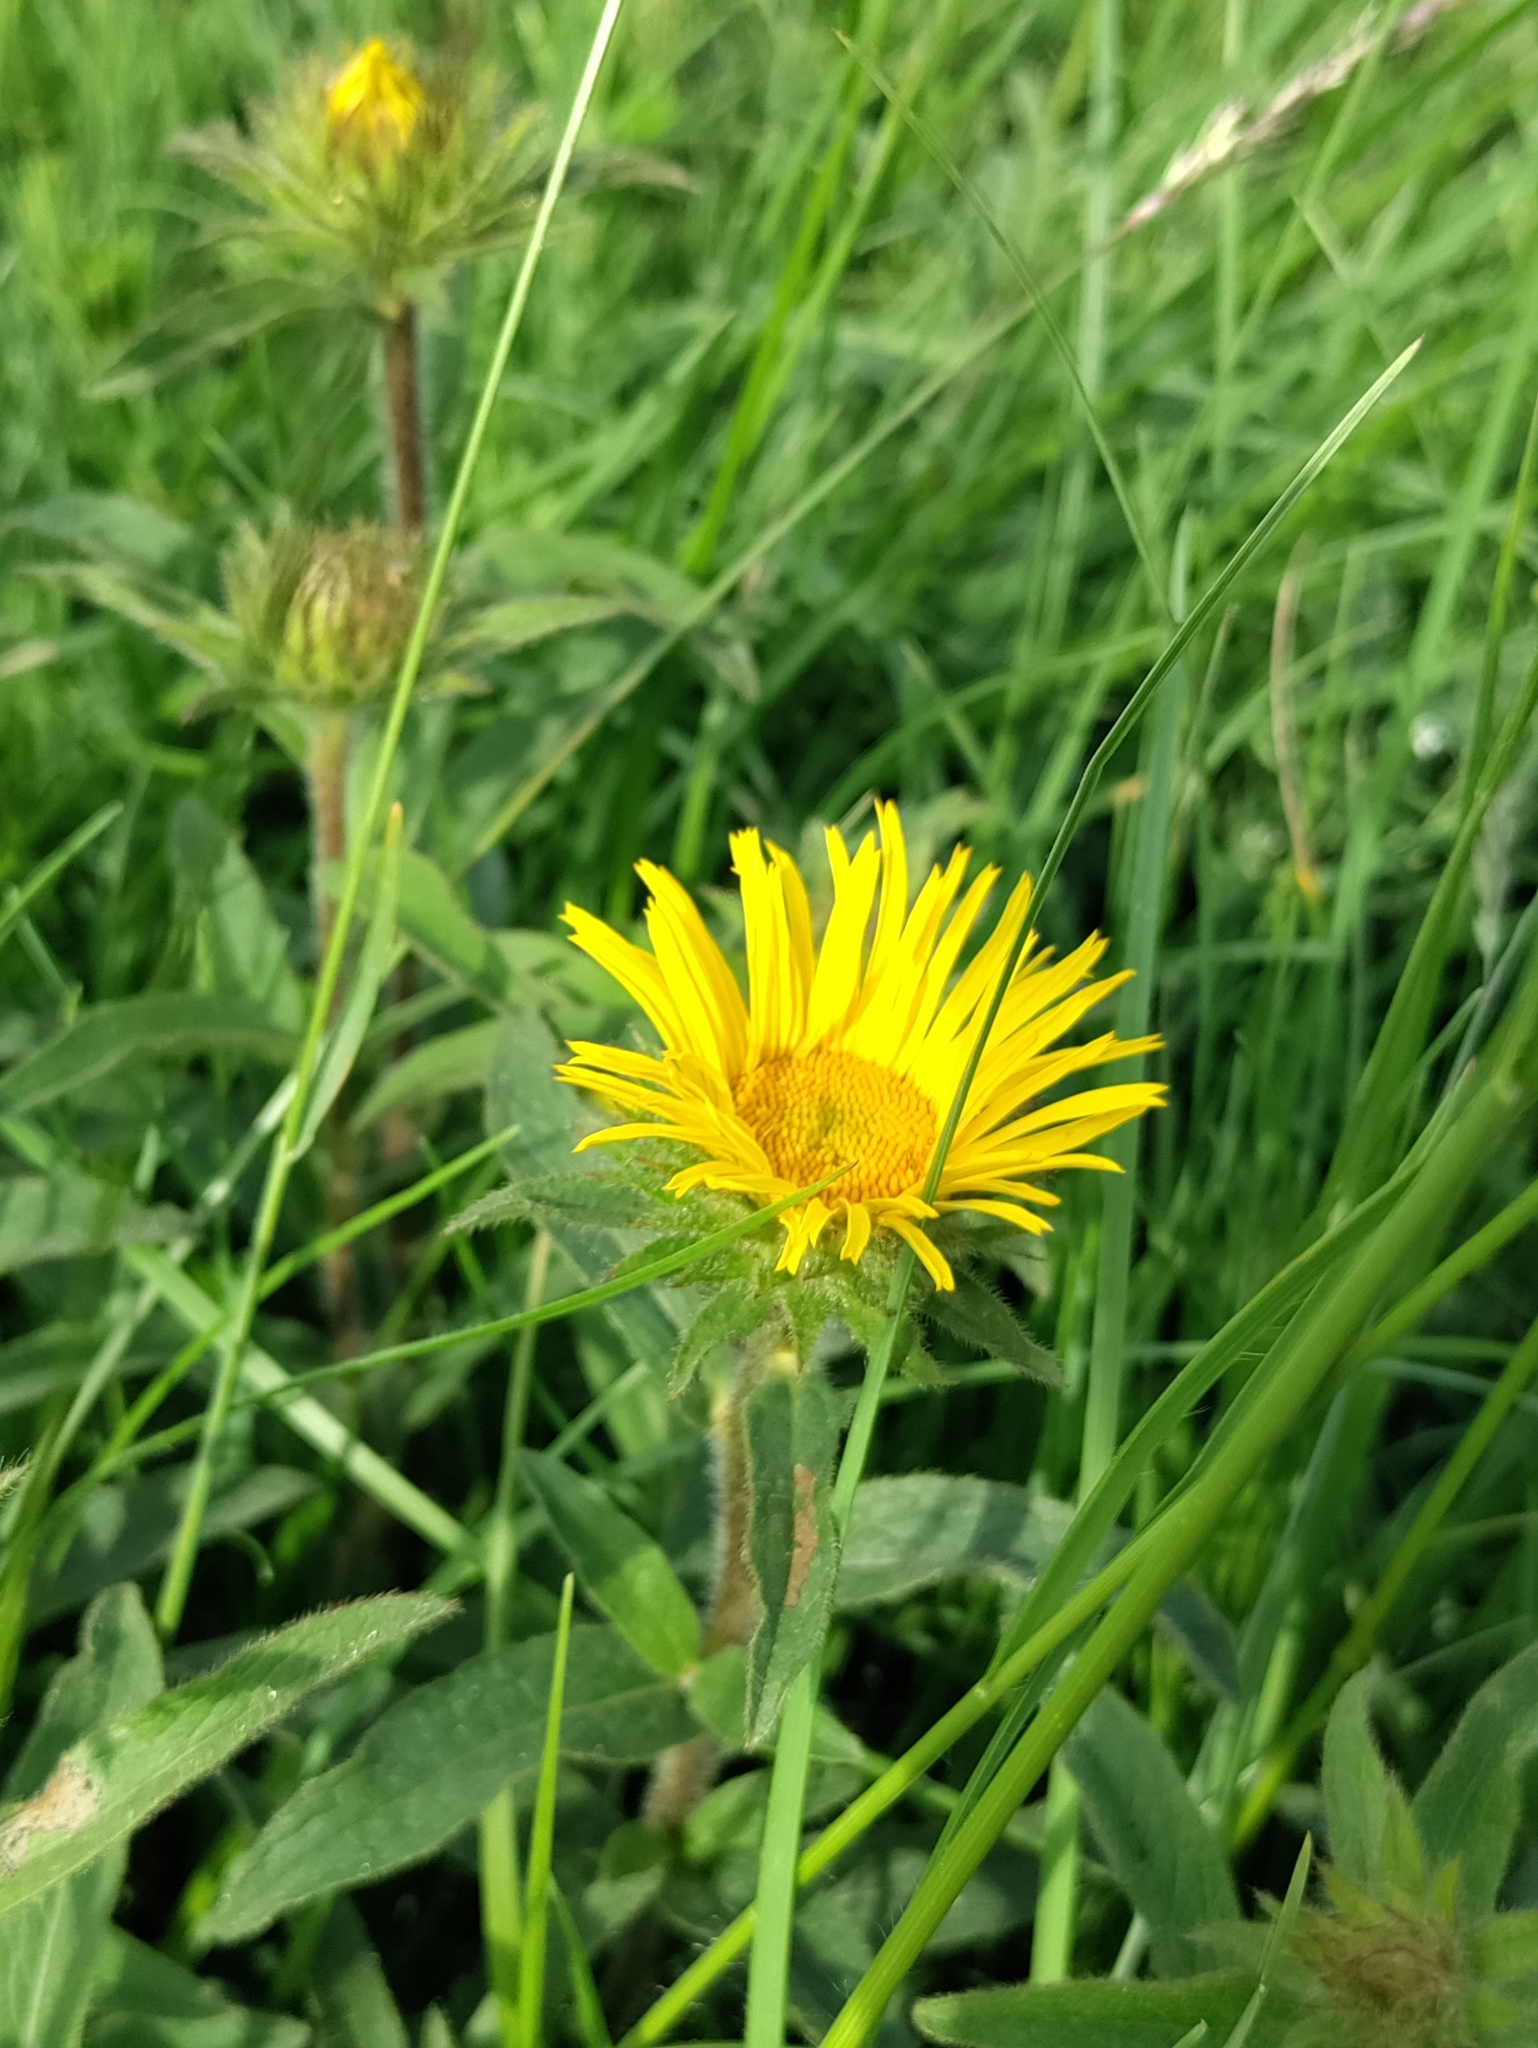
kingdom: Plantae
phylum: Tracheophyta
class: Magnoliopsida
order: Asterales
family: Asteraceae
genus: Pentanema
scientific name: Pentanema hirtum
